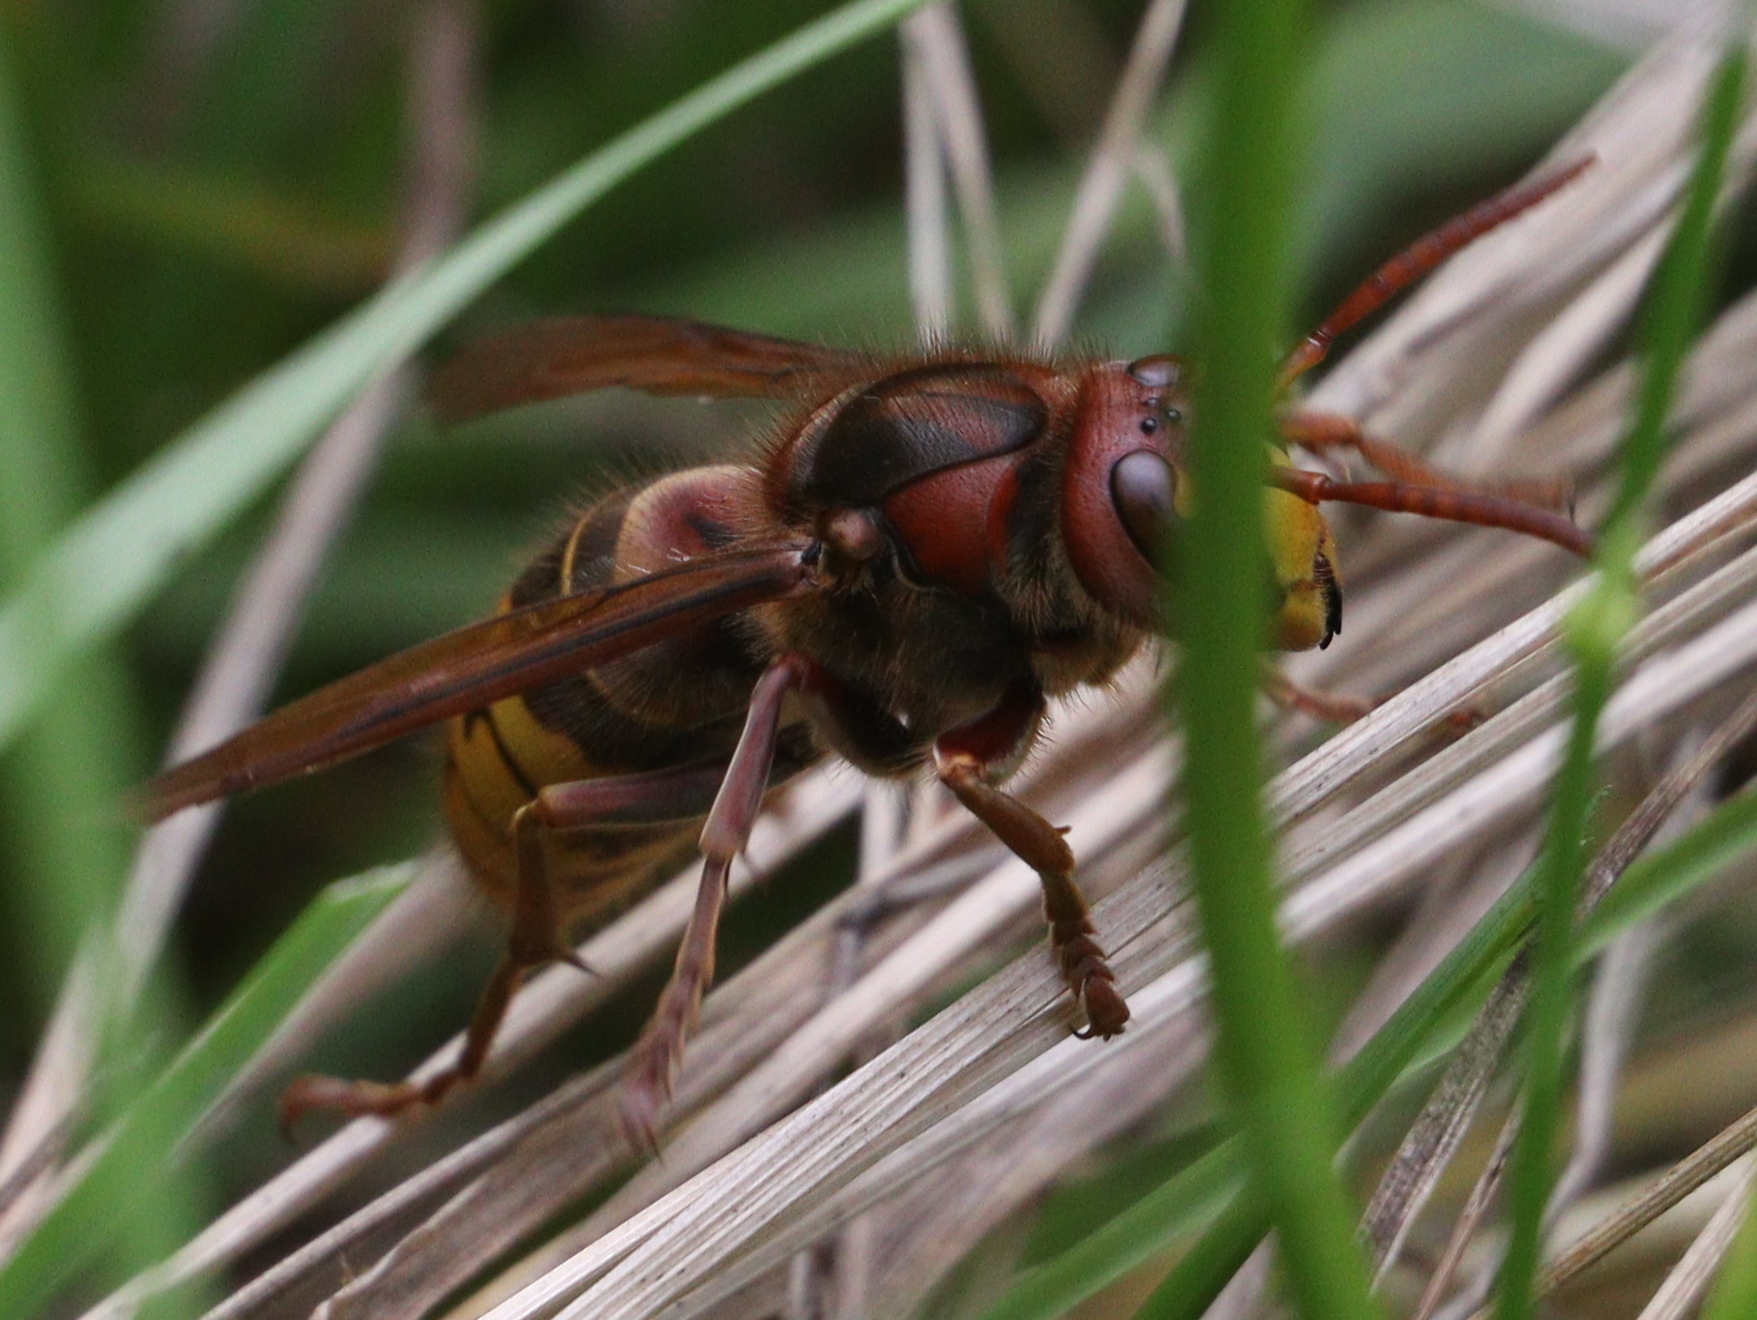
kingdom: Animalia
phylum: Arthropoda
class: Insecta
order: Hymenoptera
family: Vespidae
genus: Vespa
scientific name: Vespa crabro
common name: Hornet
